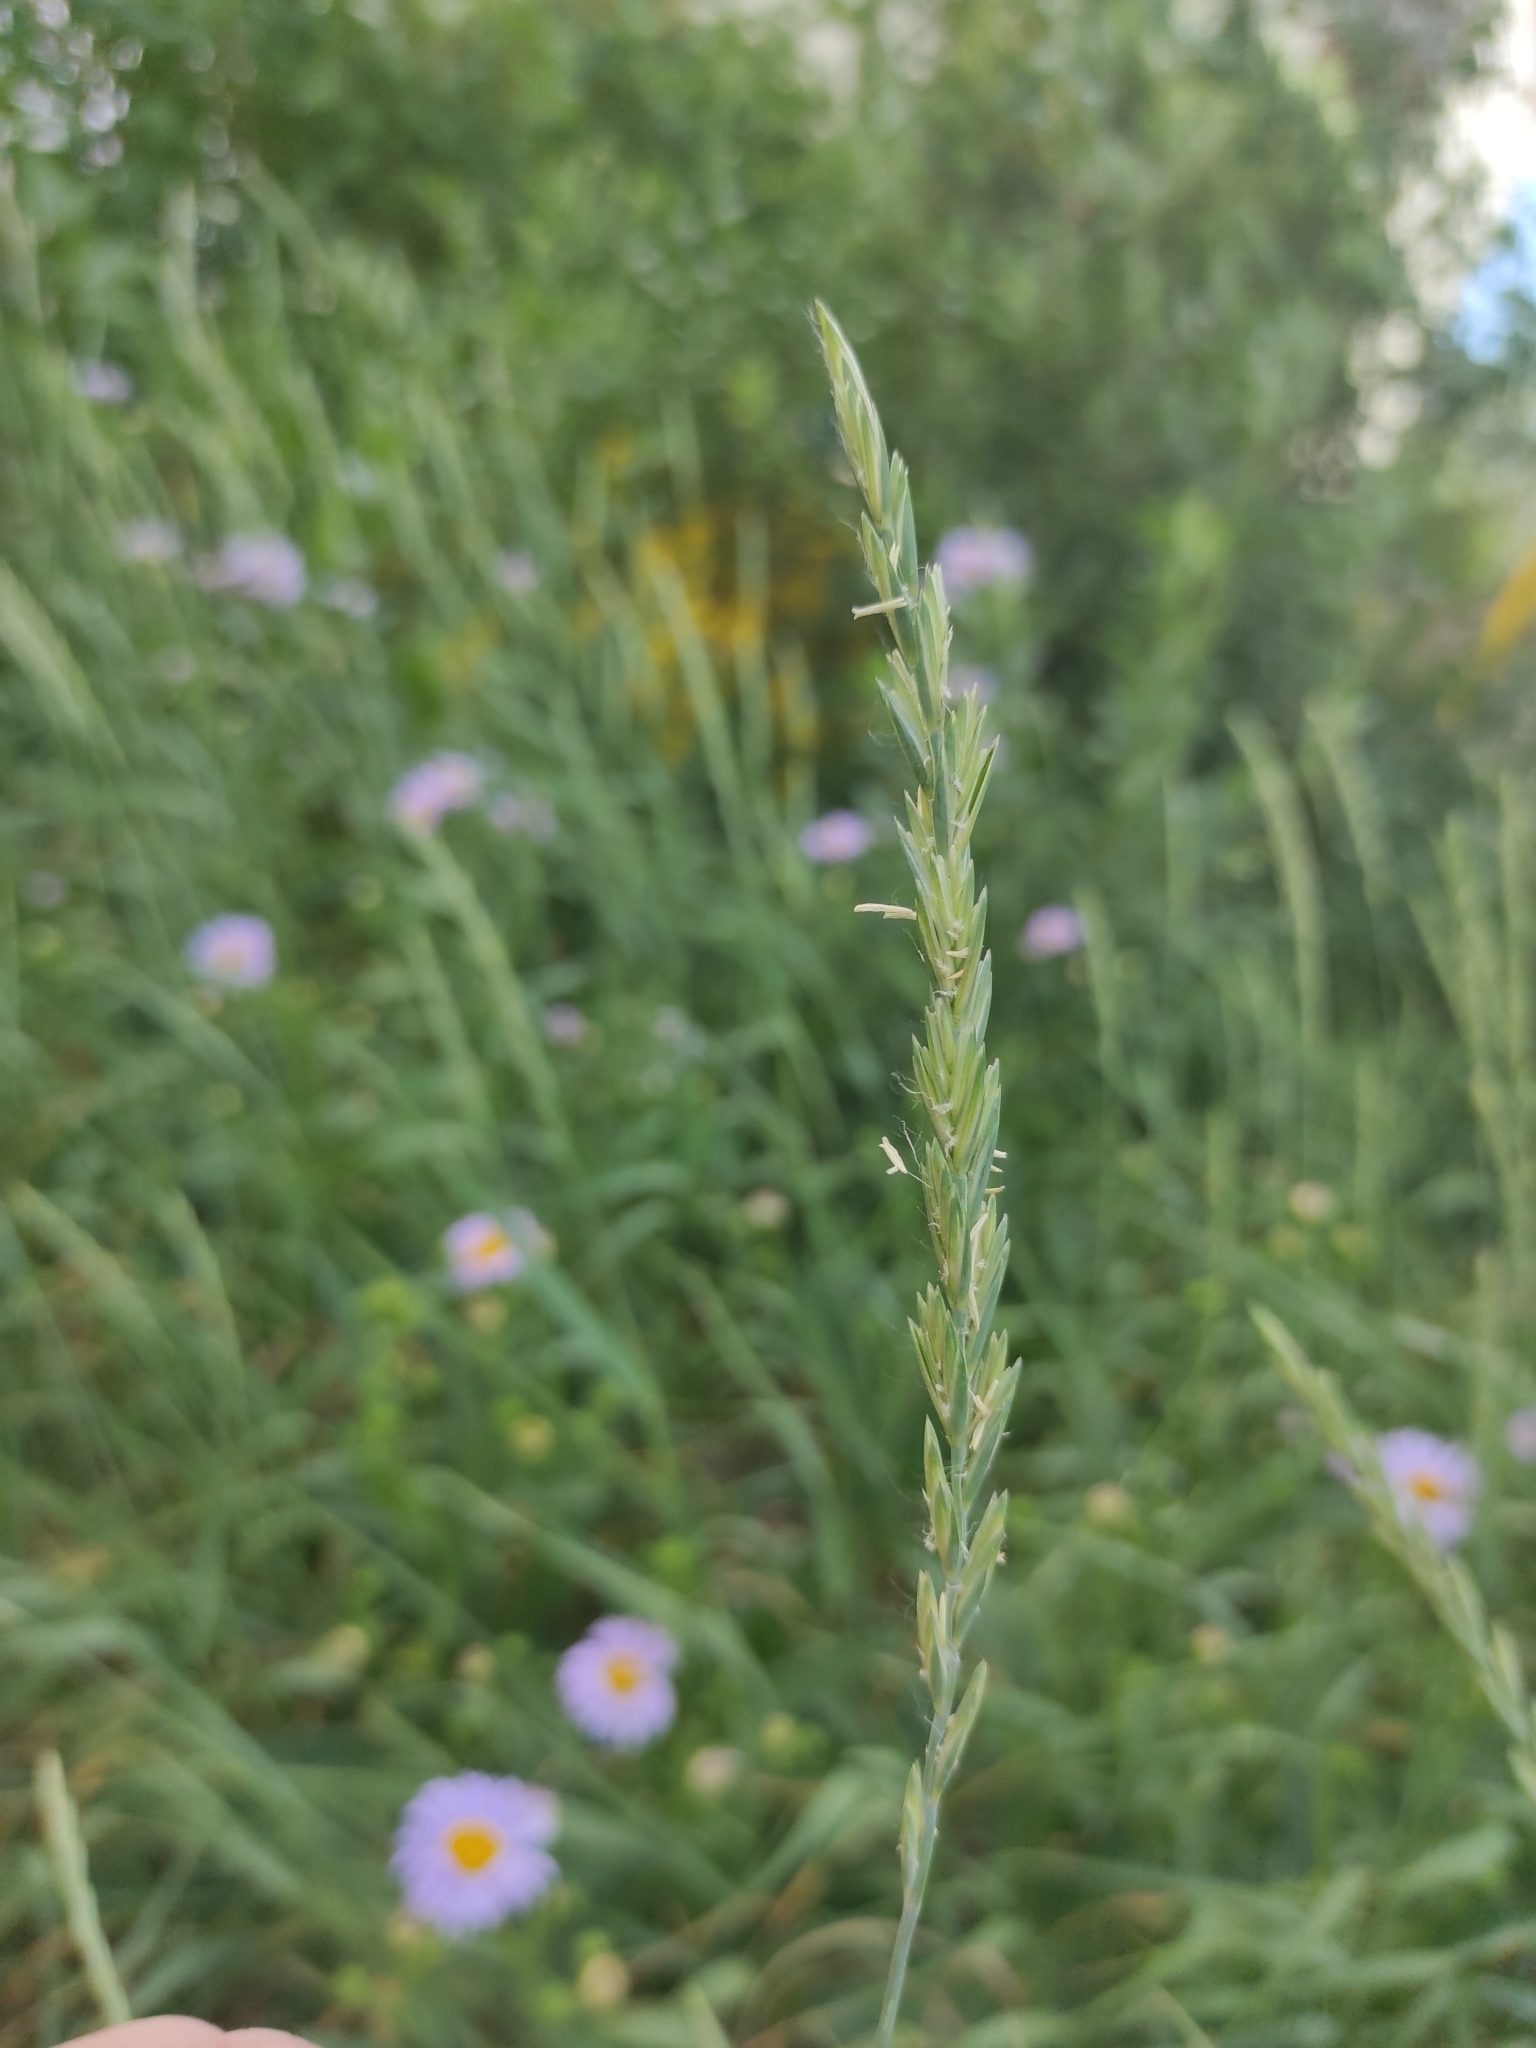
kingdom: Plantae
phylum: Tracheophyta
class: Liliopsida
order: Poales
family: Poaceae
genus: Elymus
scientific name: Elymus repens
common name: Quackgrass
